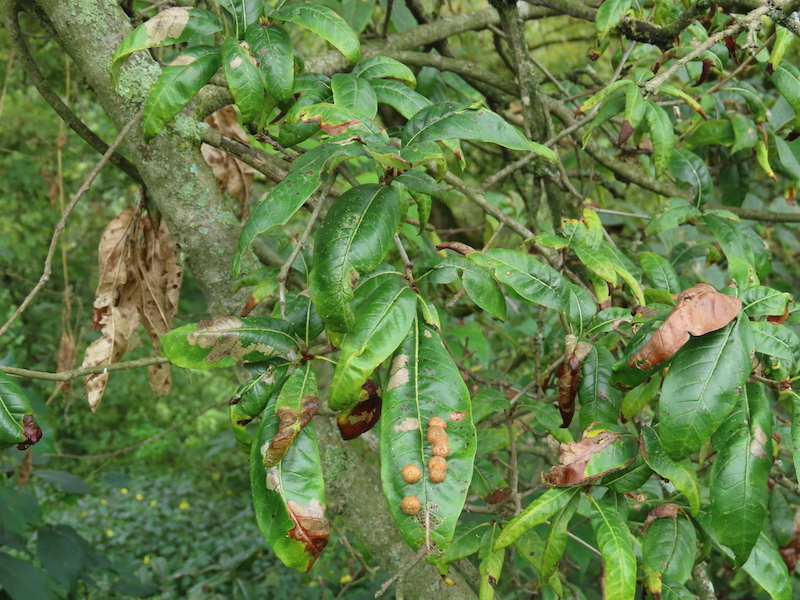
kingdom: Animalia
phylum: Arthropoda
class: Insecta
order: Diptera
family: Cecidomyiidae
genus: Polystepha
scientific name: Polystepha pilulae
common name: Oak leaf gall midge
